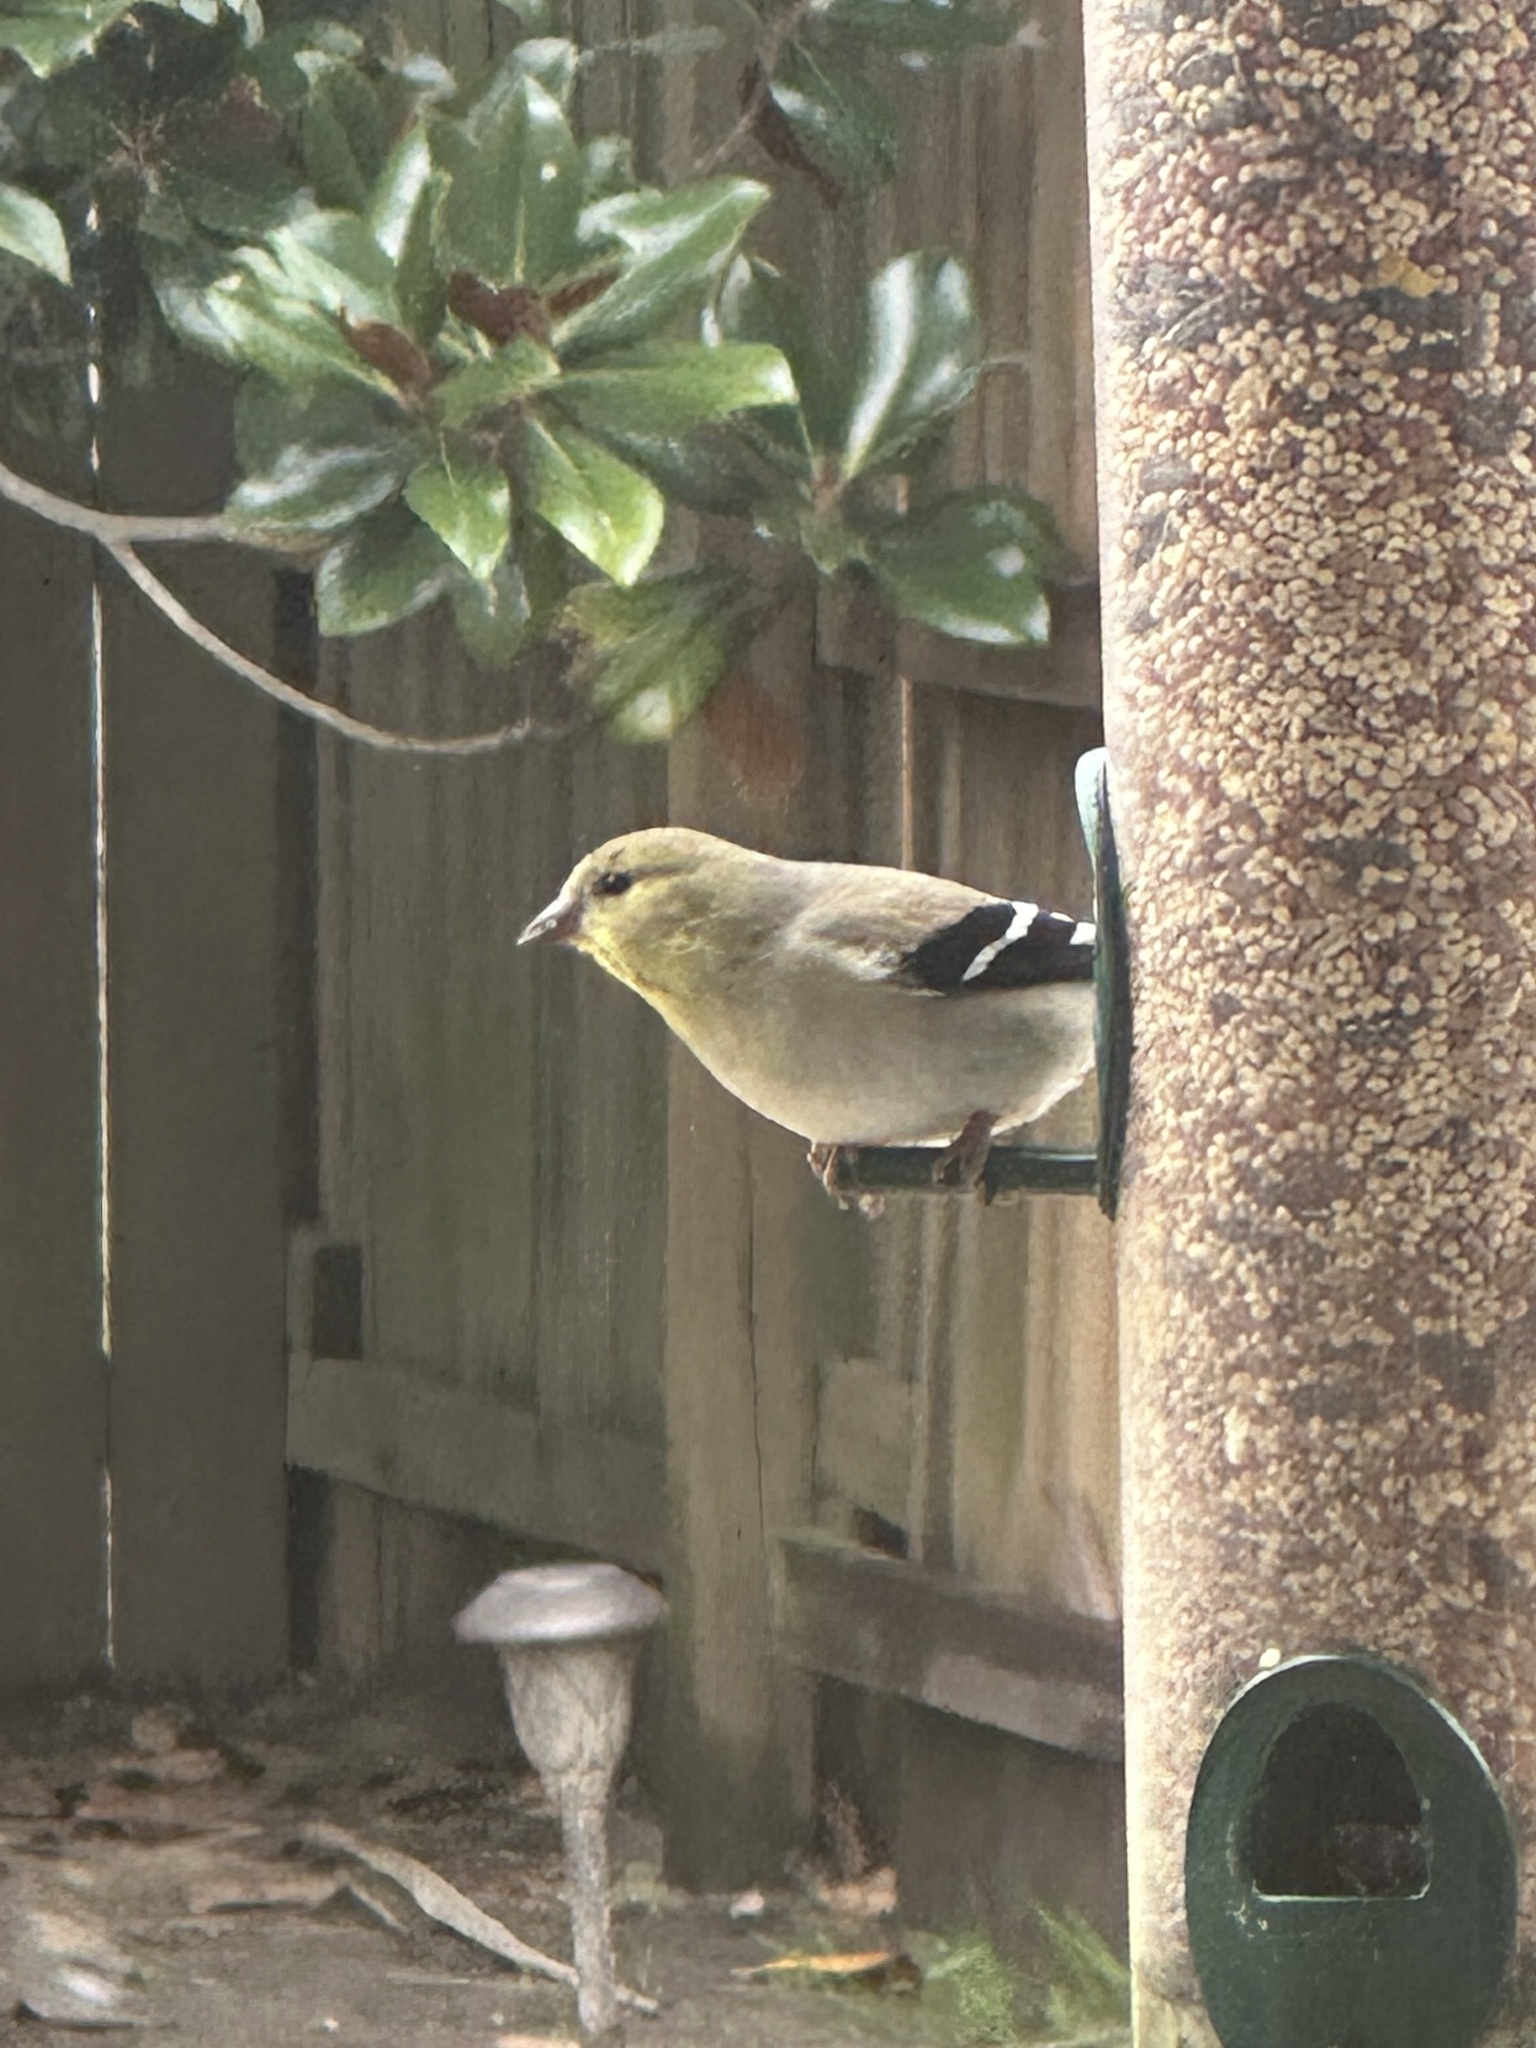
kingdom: Animalia
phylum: Chordata
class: Aves
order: Passeriformes
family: Fringillidae
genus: Spinus
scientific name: Spinus tristis
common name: American goldfinch
